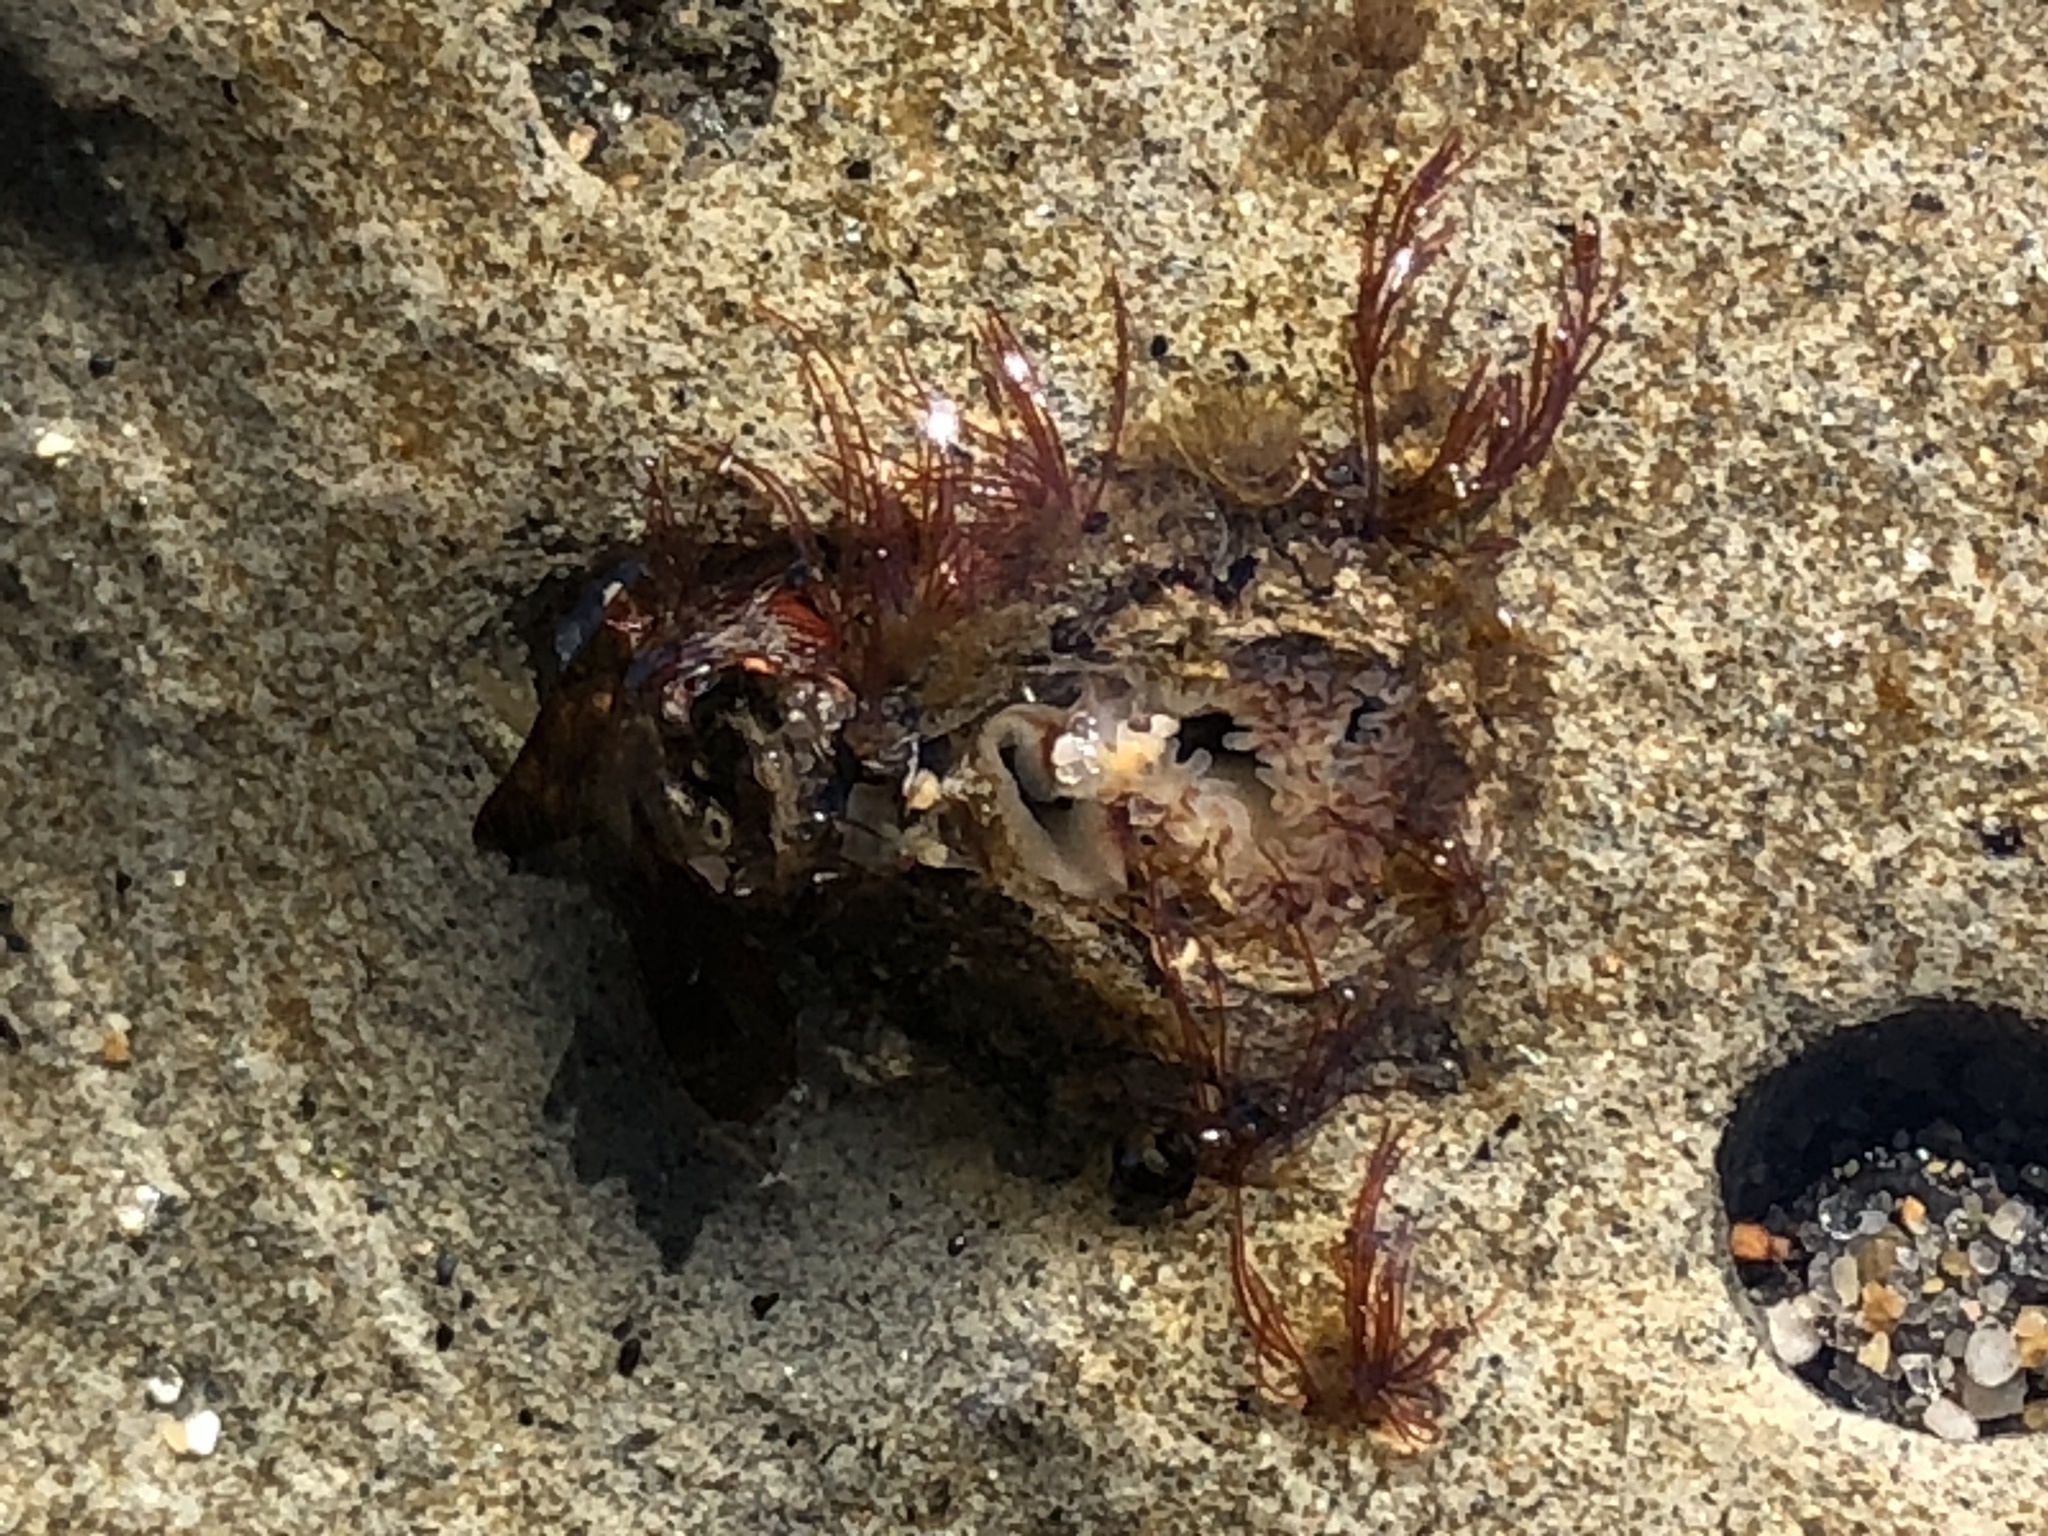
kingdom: Animalia
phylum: Mollusca
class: Bivalvia
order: Myida
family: Pholadidae
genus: Parapholas
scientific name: Parapholas californica
